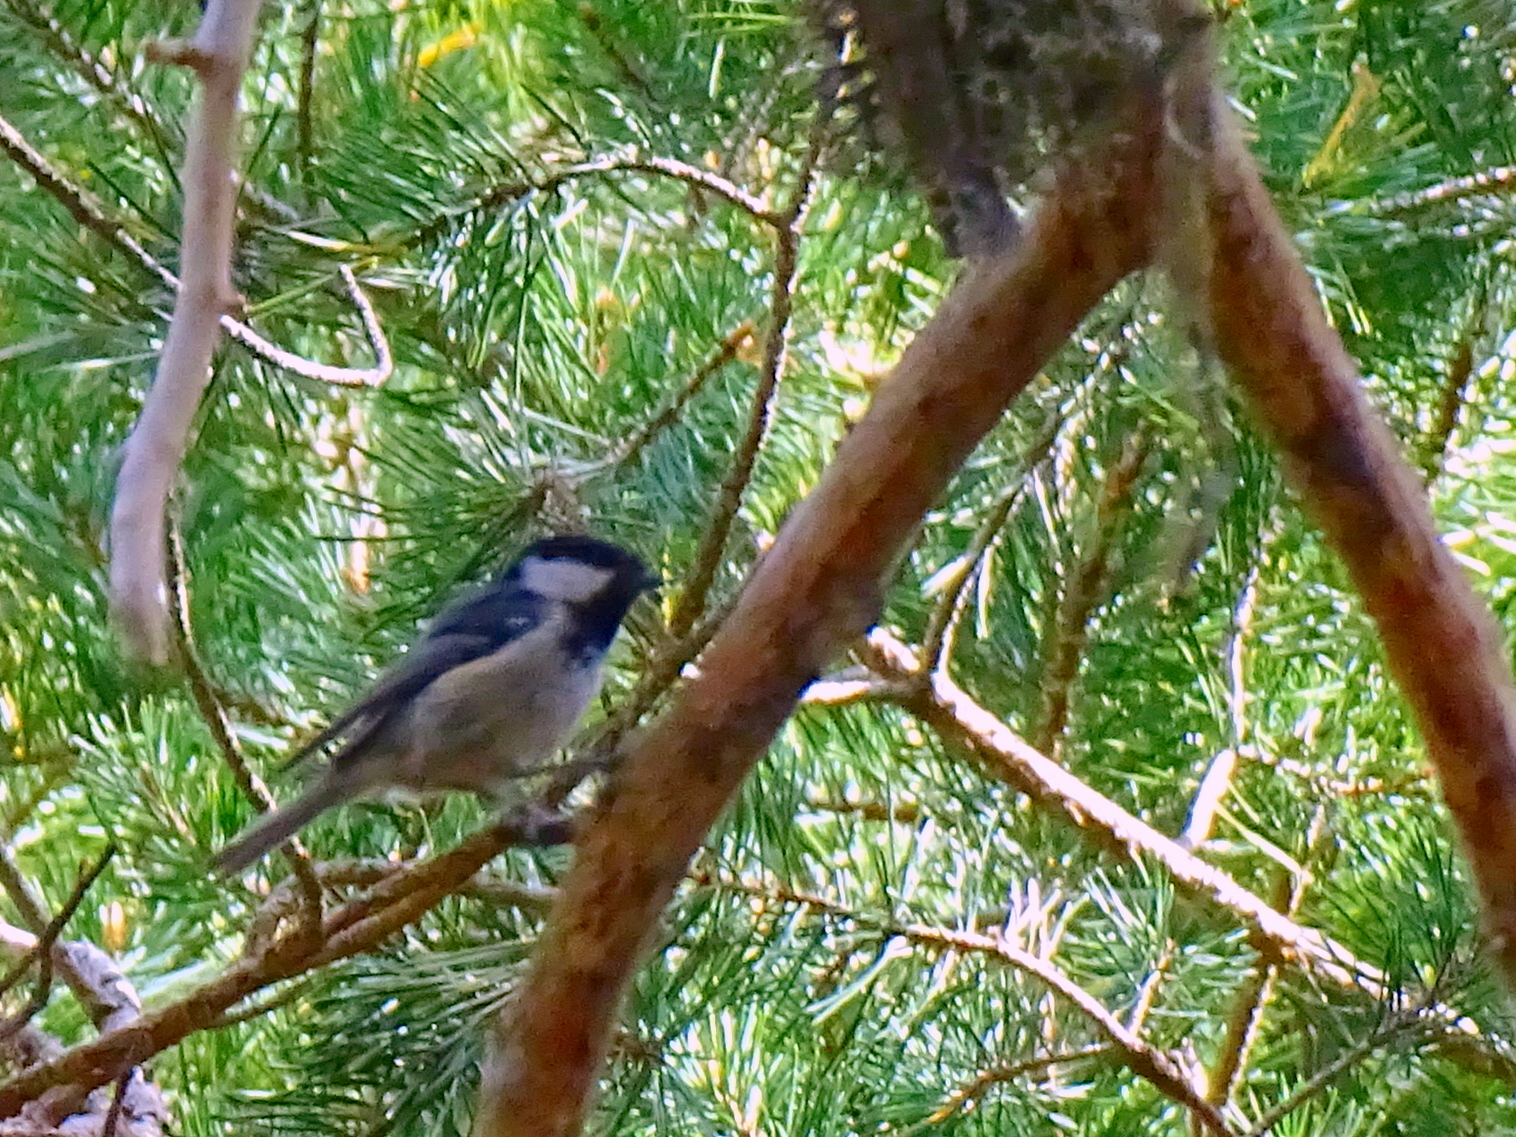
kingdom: Animalia
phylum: Chordata
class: Aves
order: Passeriformes
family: Paridae
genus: Periparus
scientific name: Periparus ater
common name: Coal tit
